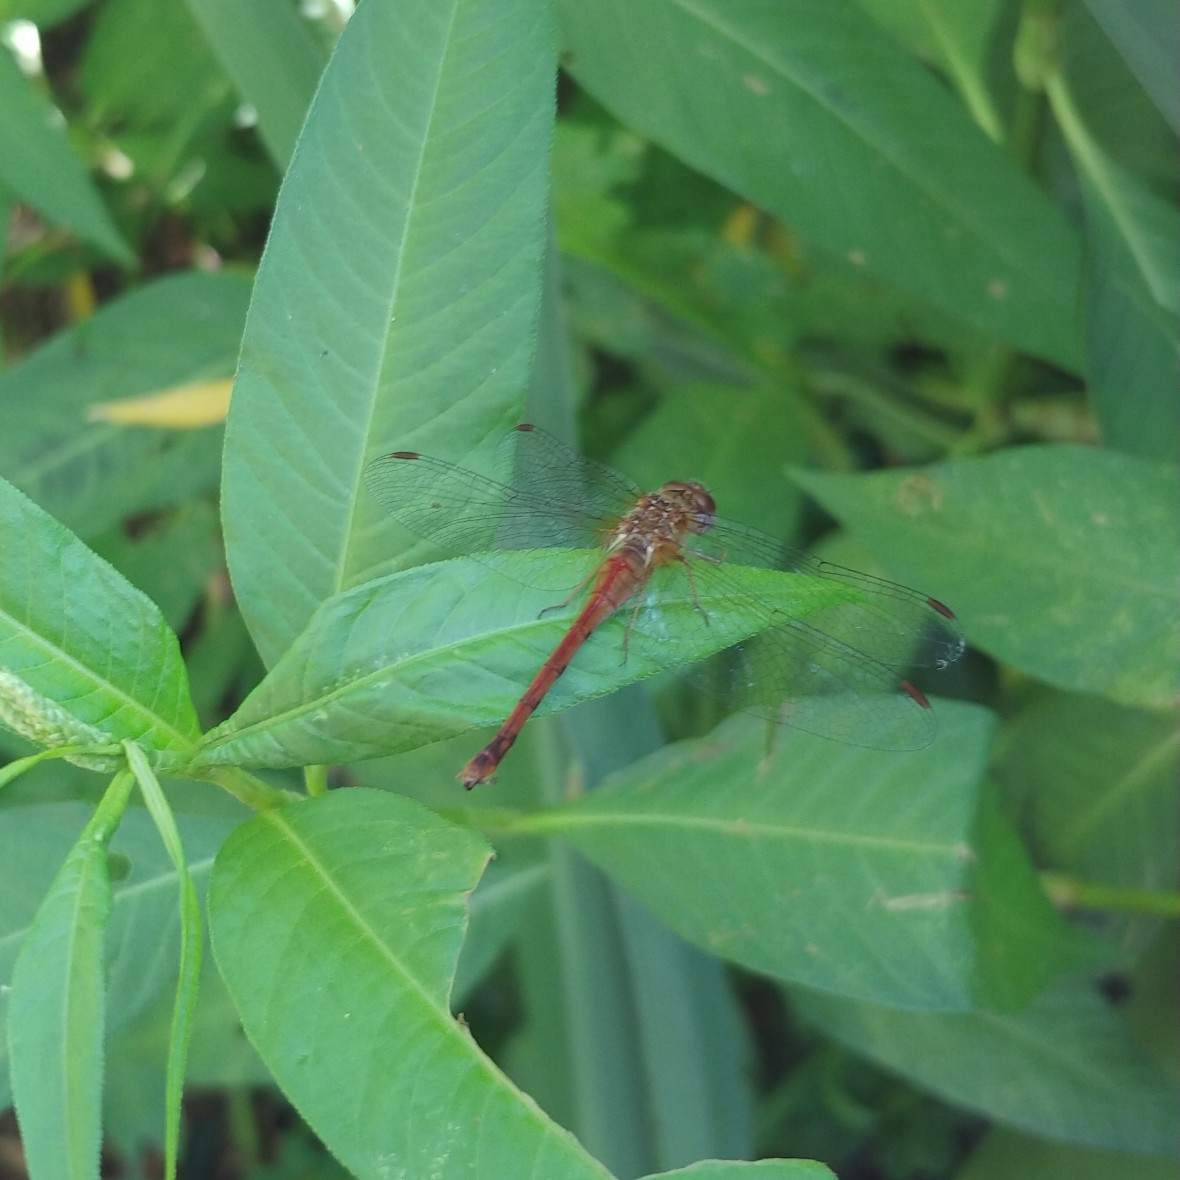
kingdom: Animalia
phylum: Arthropoda
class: Insecta
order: Odonata
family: Libellulidae
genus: Sympetrum
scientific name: Sympetrum vicinum
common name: Autumn meadowhawk
